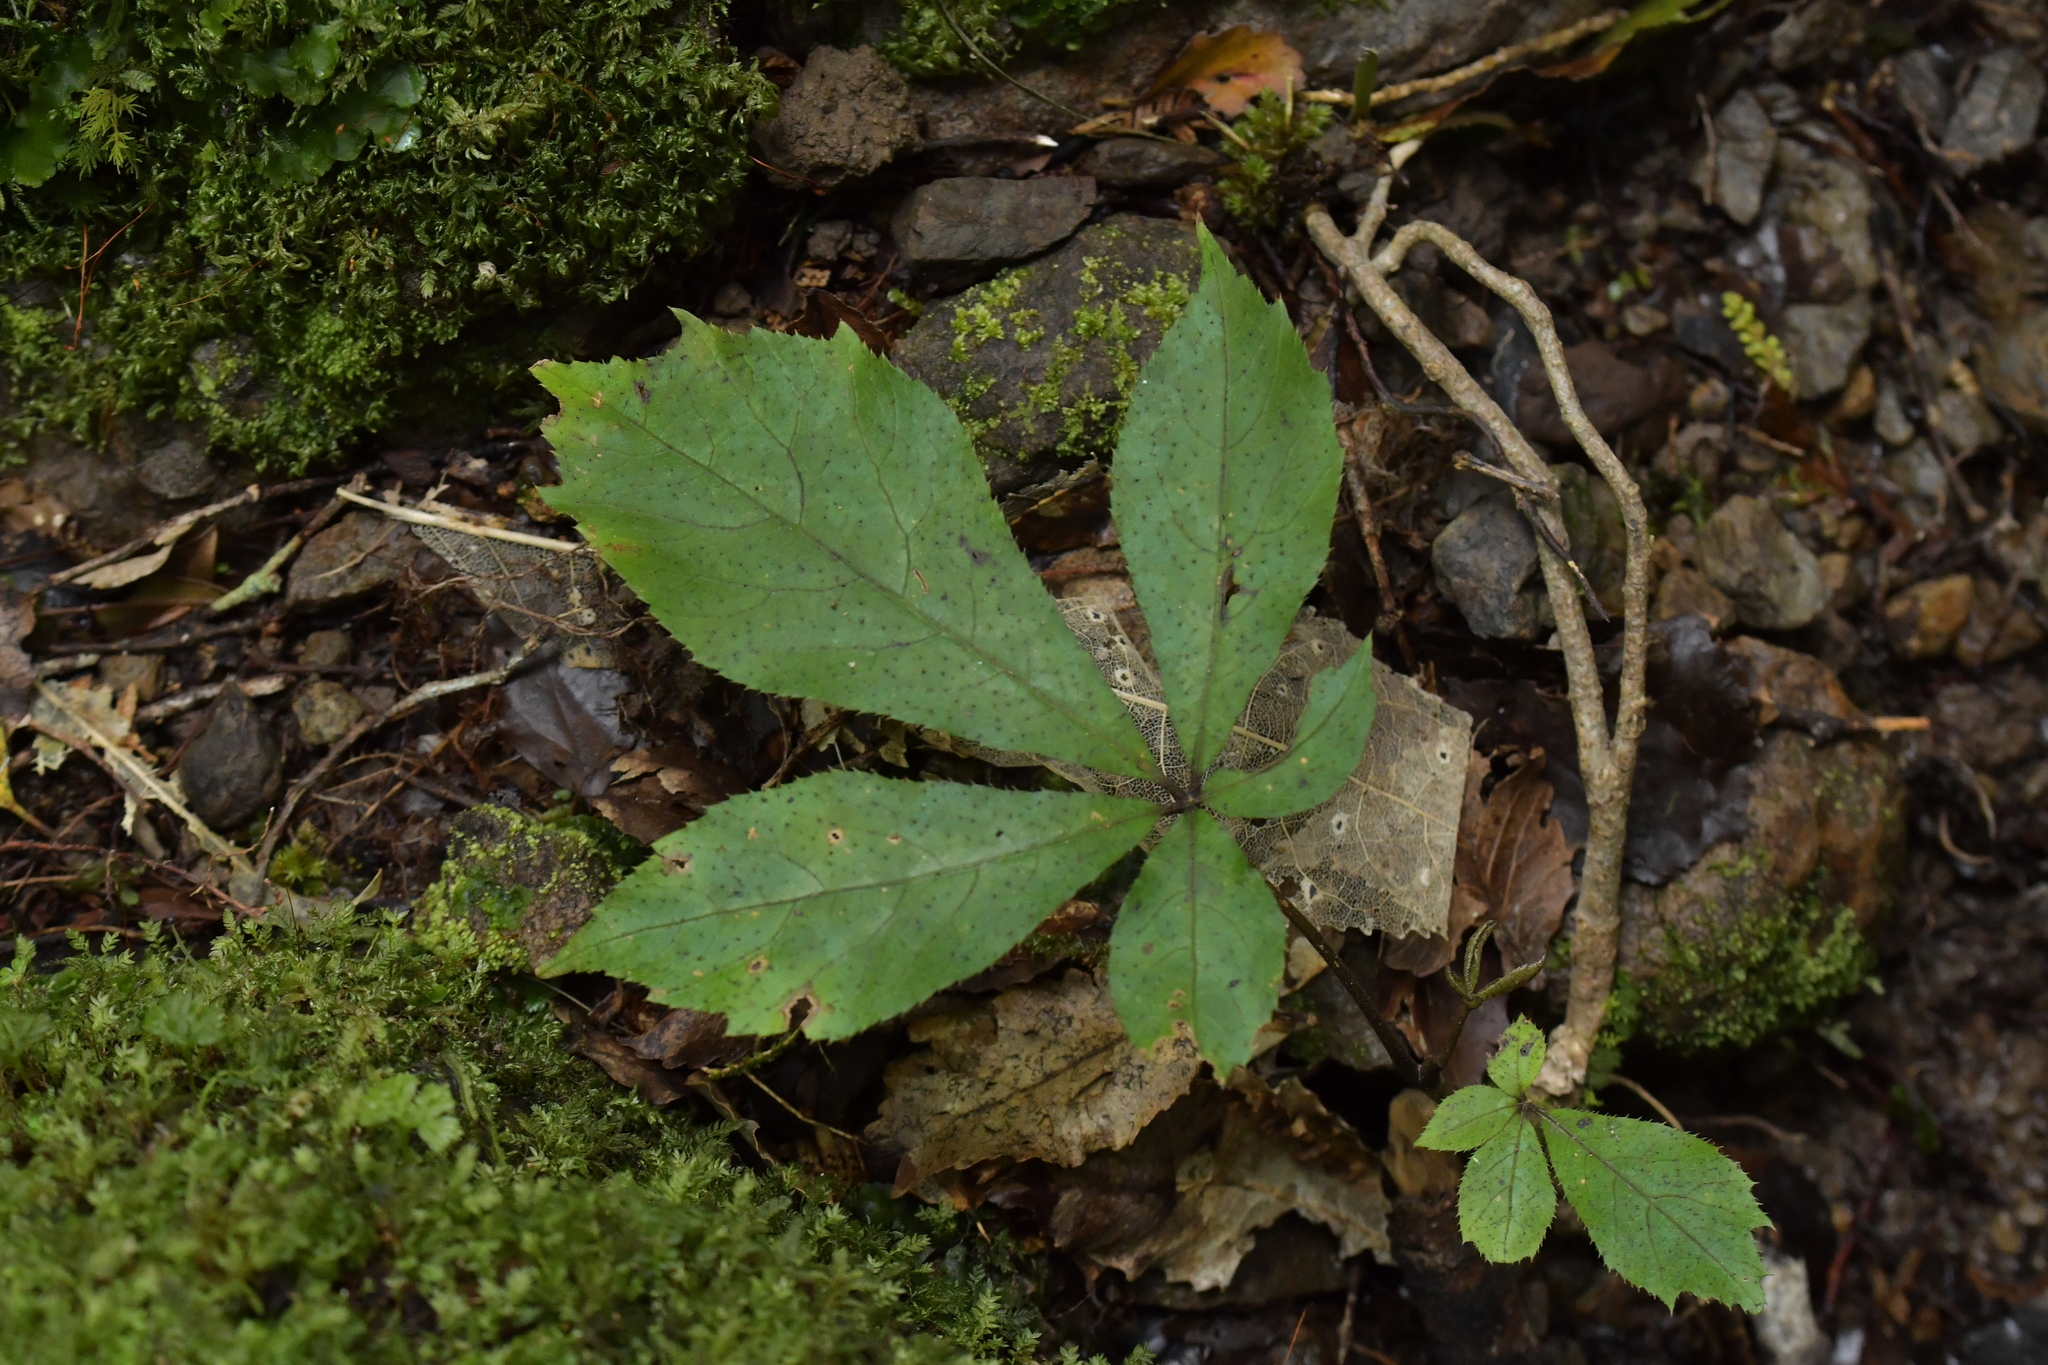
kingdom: Plantae
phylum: Tracheophyta
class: Magnoliopsida
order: Apiales
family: Araliaceae
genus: Schefflera
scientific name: Schefflera digitata
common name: Pate
